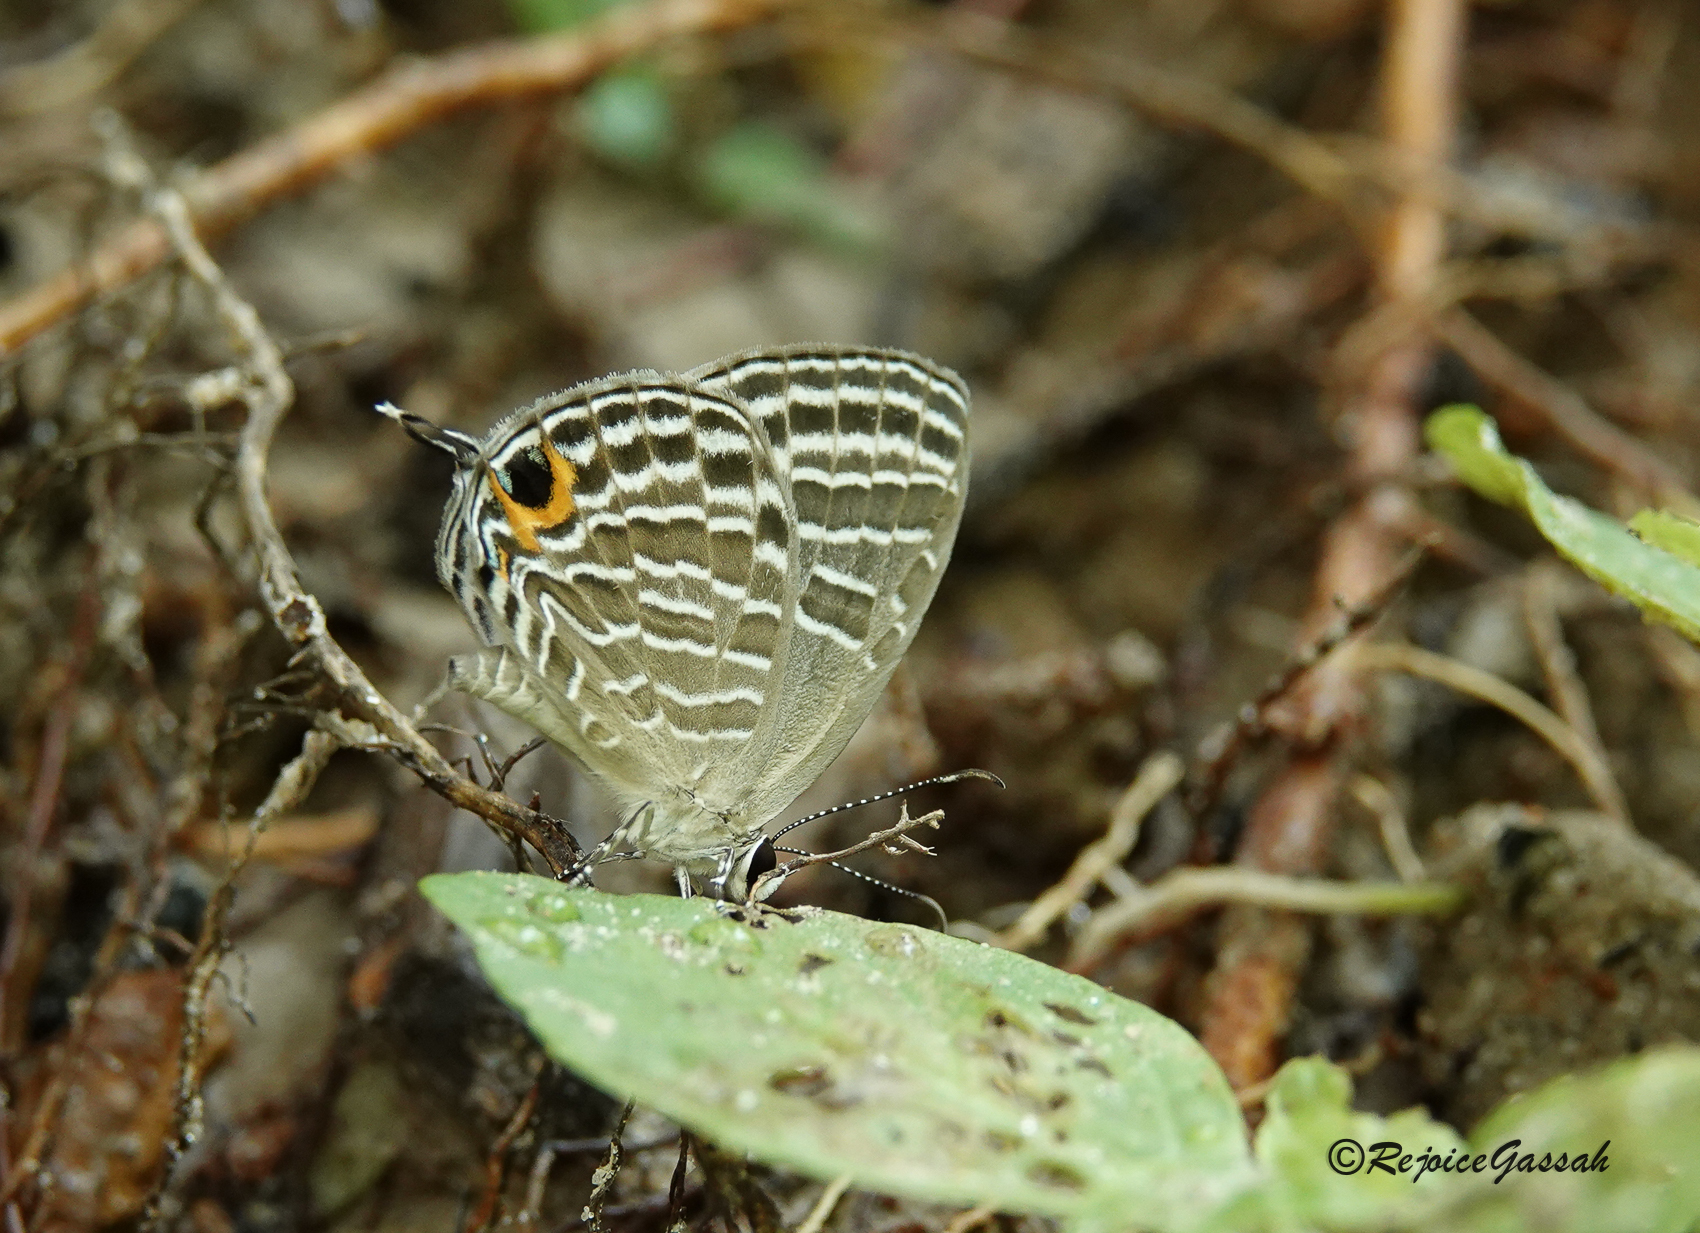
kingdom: Animalia
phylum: Arthropoda
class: Insecta
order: Lepidoptera
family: Lycaenidae
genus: Jamides
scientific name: Jamides celeno
